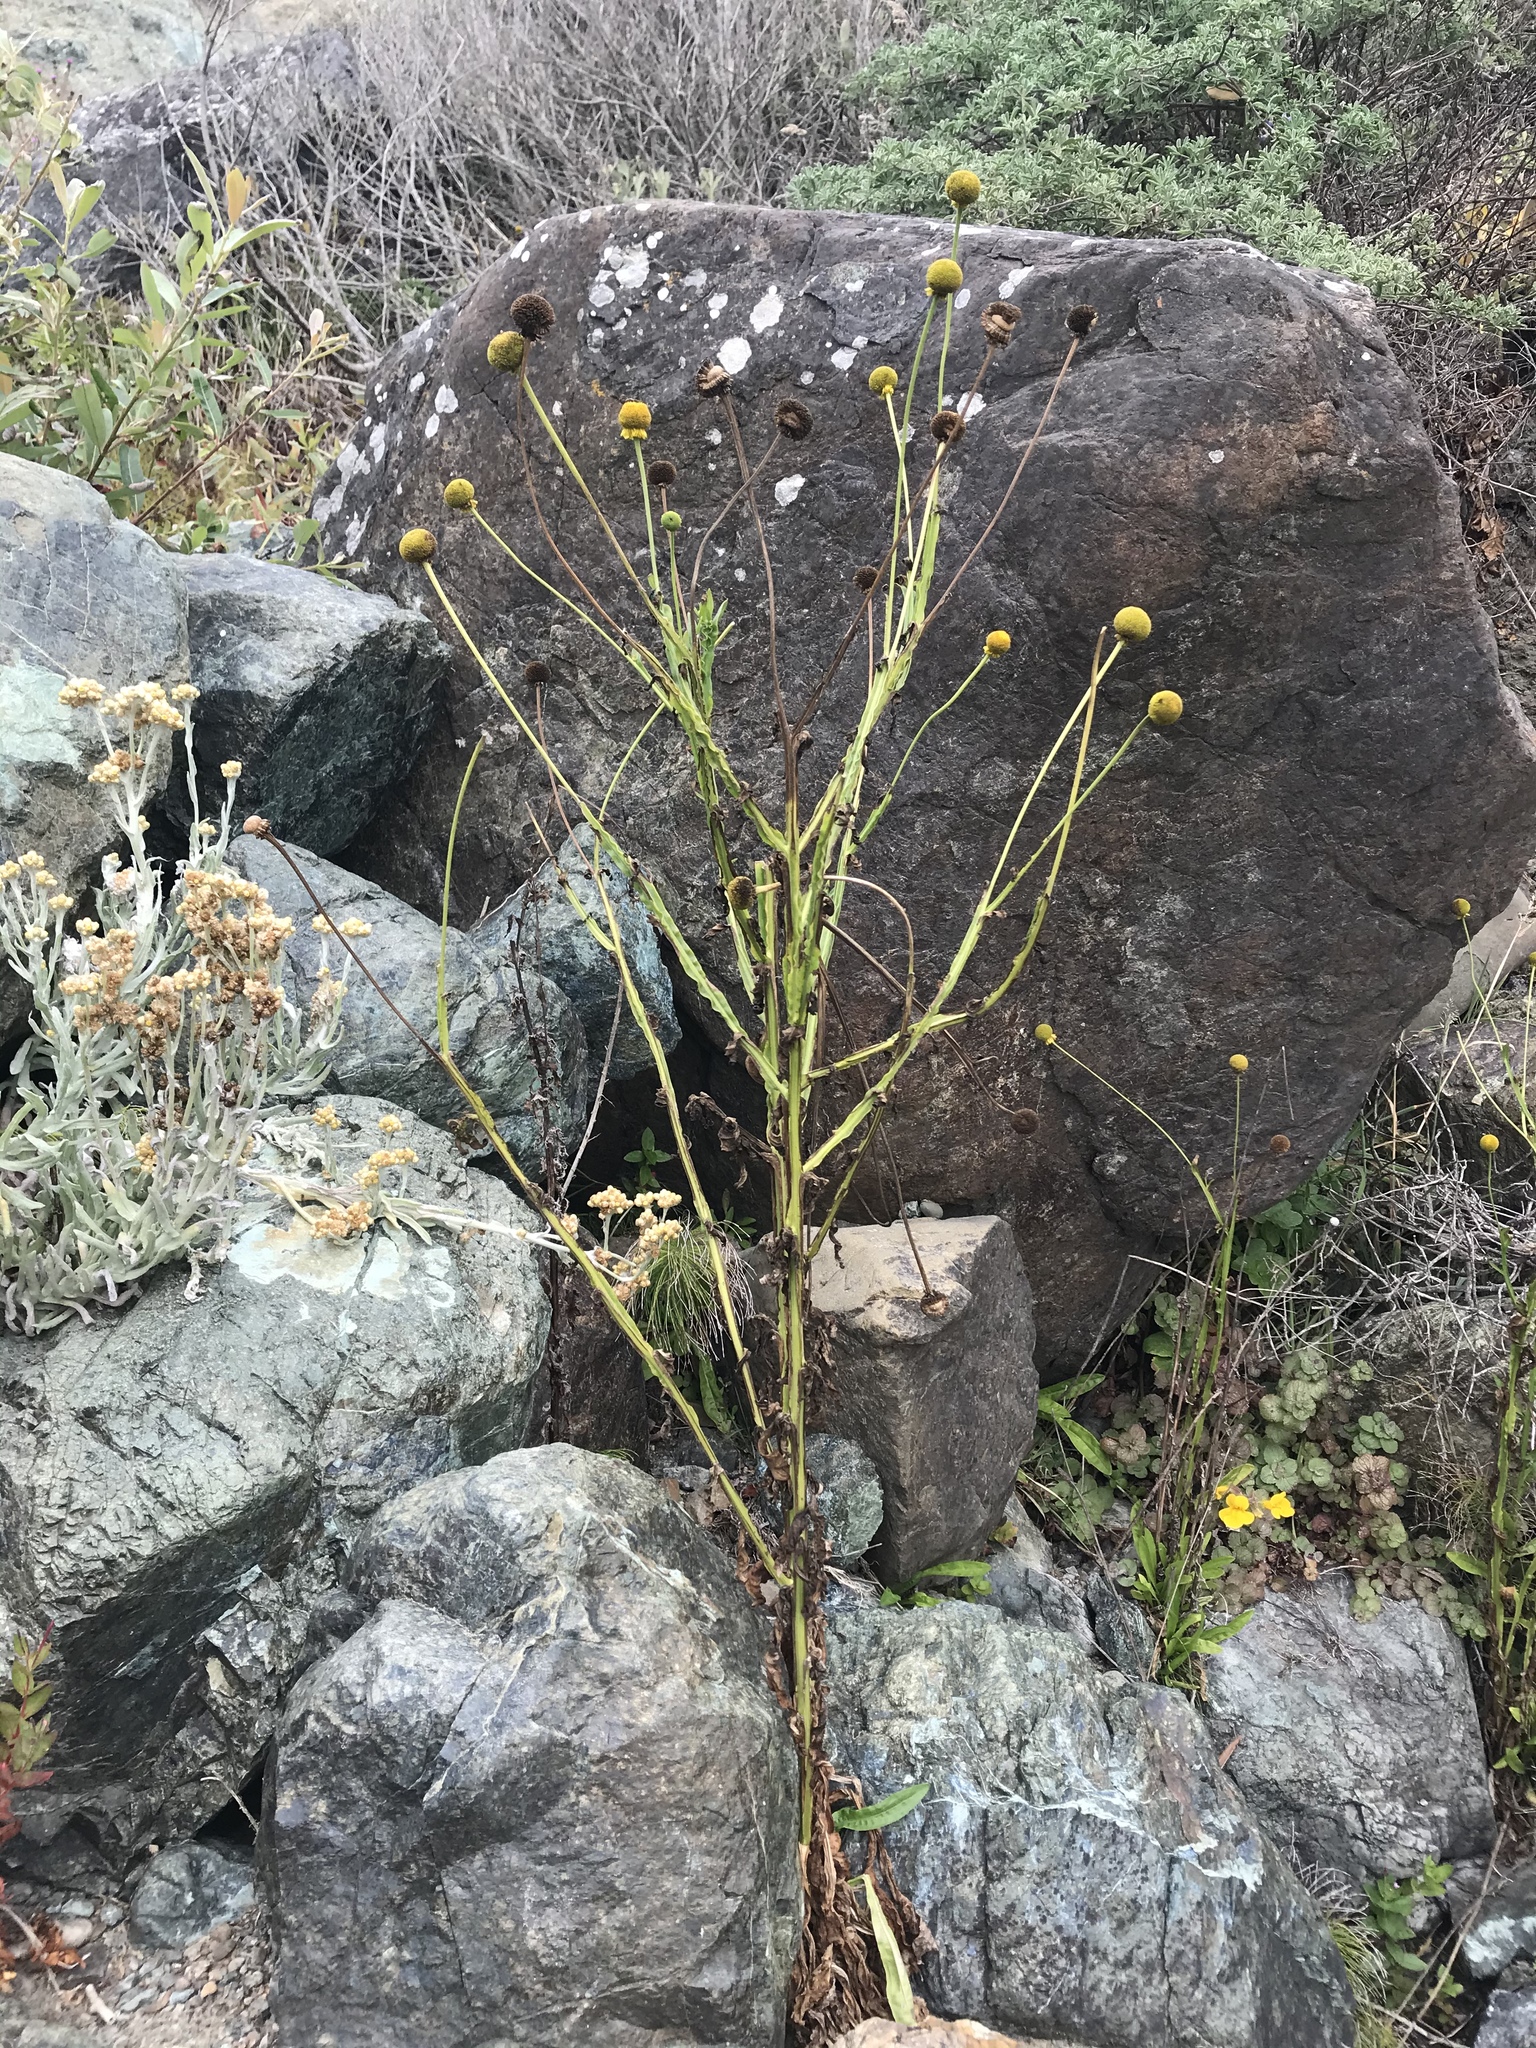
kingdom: Plantae
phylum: Tracheophyta
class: Magnoliopsida
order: Asterales
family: Asteraceae
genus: Helenium
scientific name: Helenium puberulum
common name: Sneezewort
